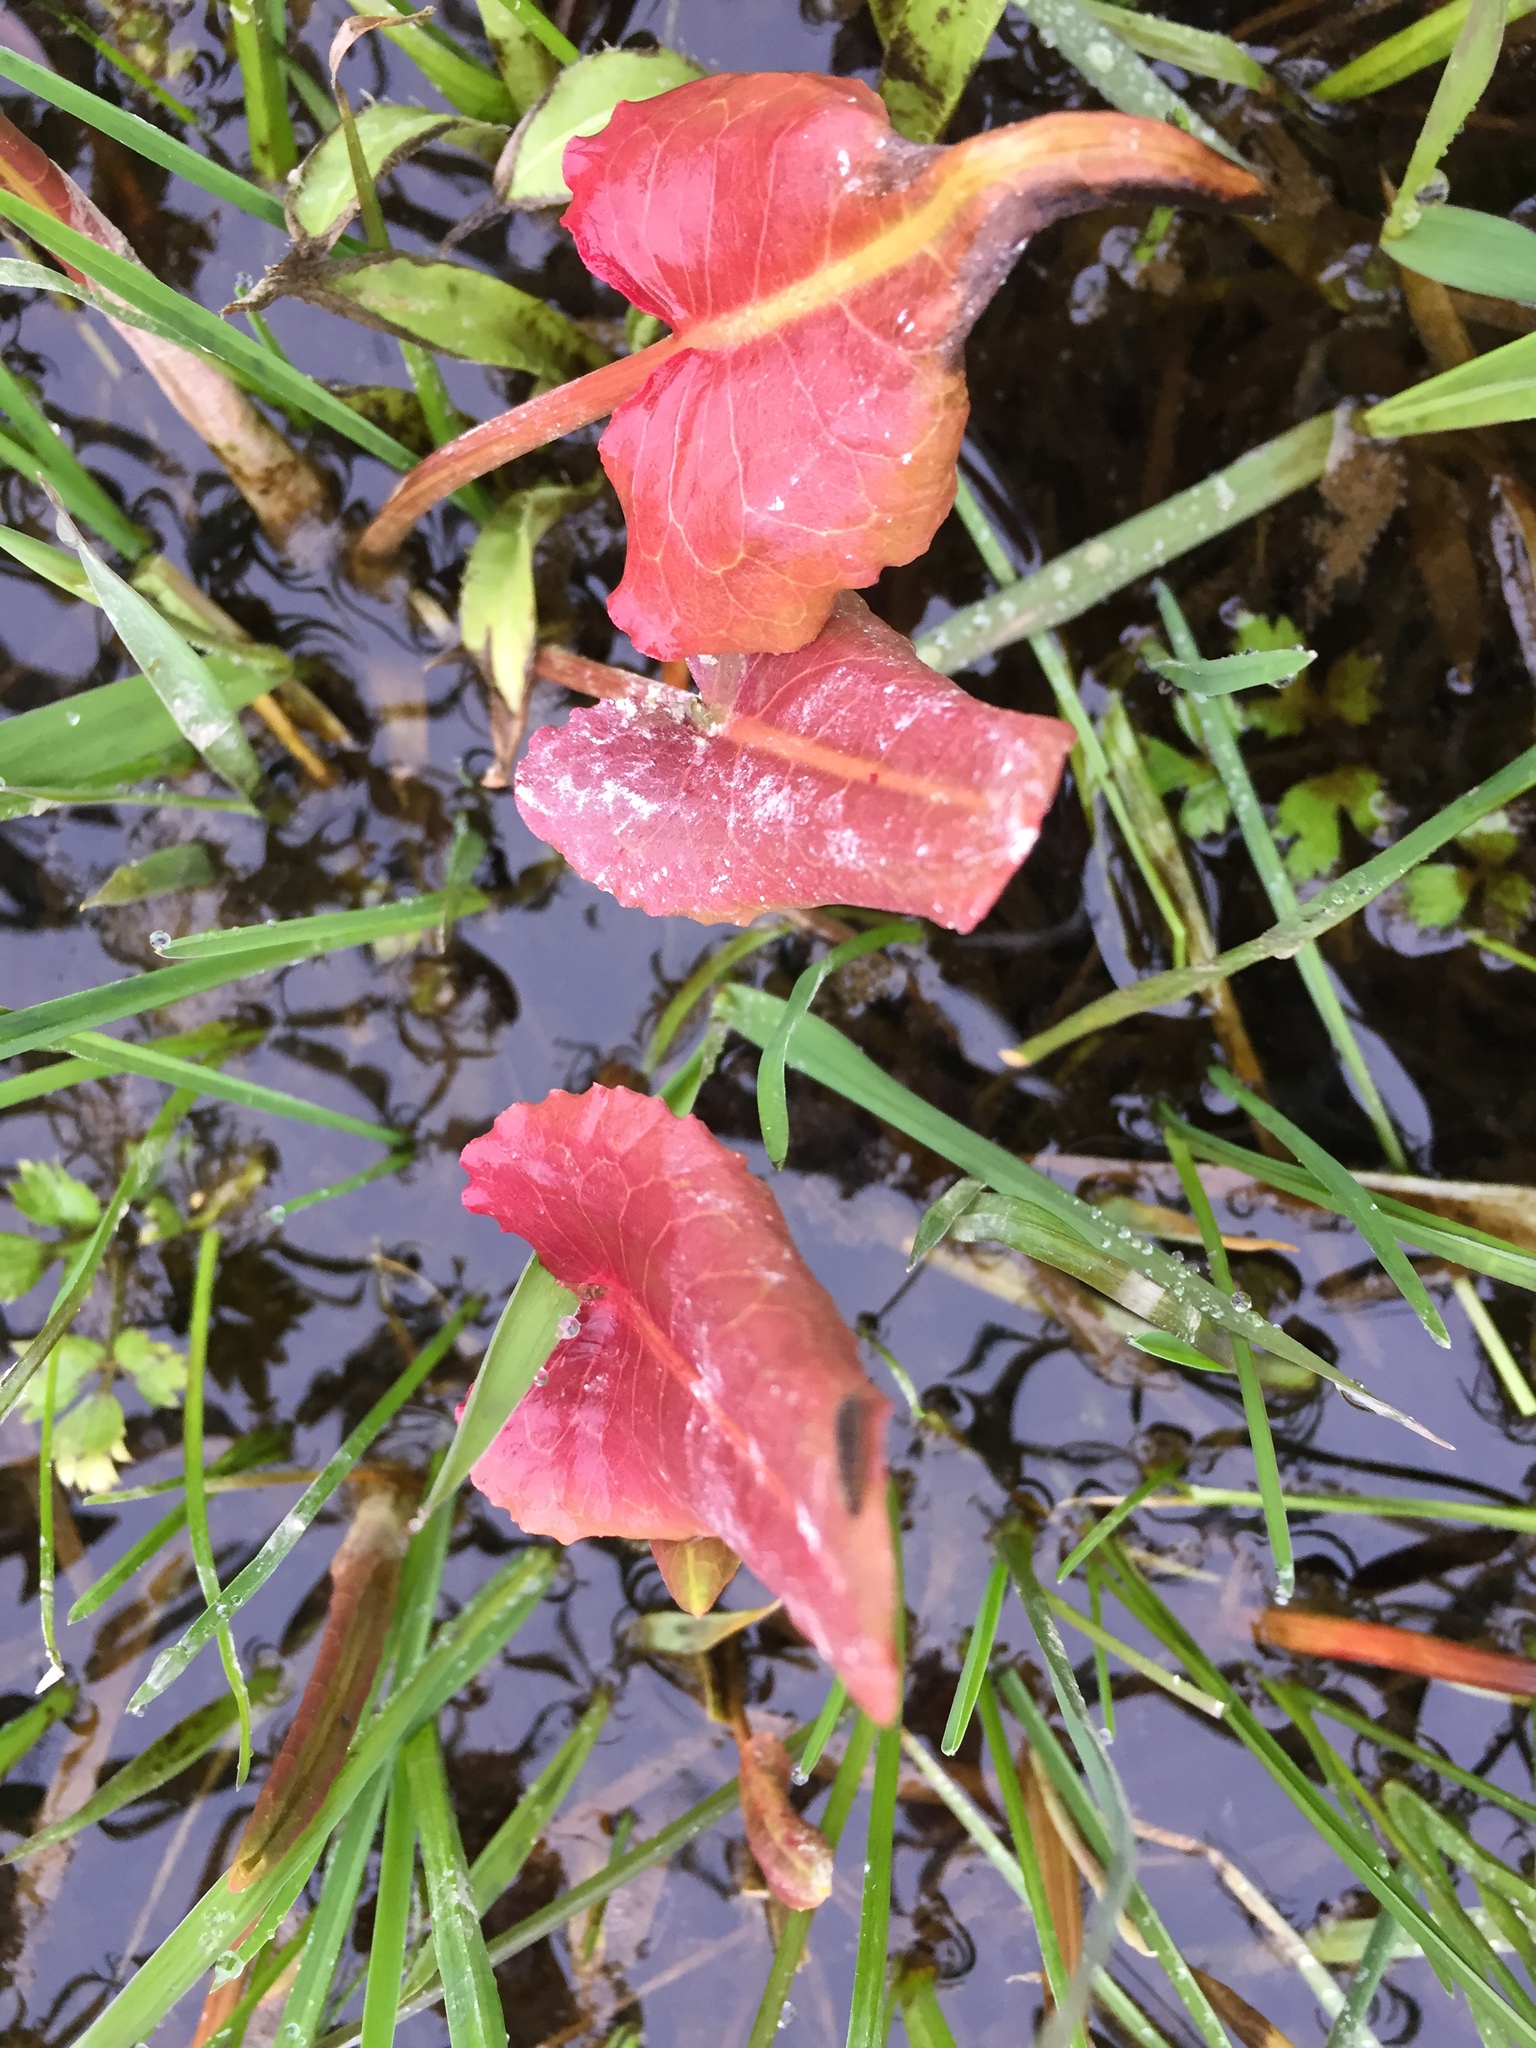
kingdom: Plantae
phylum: Tracheophyta
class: Magnoliopsida
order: Caryophyllales
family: Polygonaceae
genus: Rumex
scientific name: Rumex aquaticus
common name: Scottish dock
